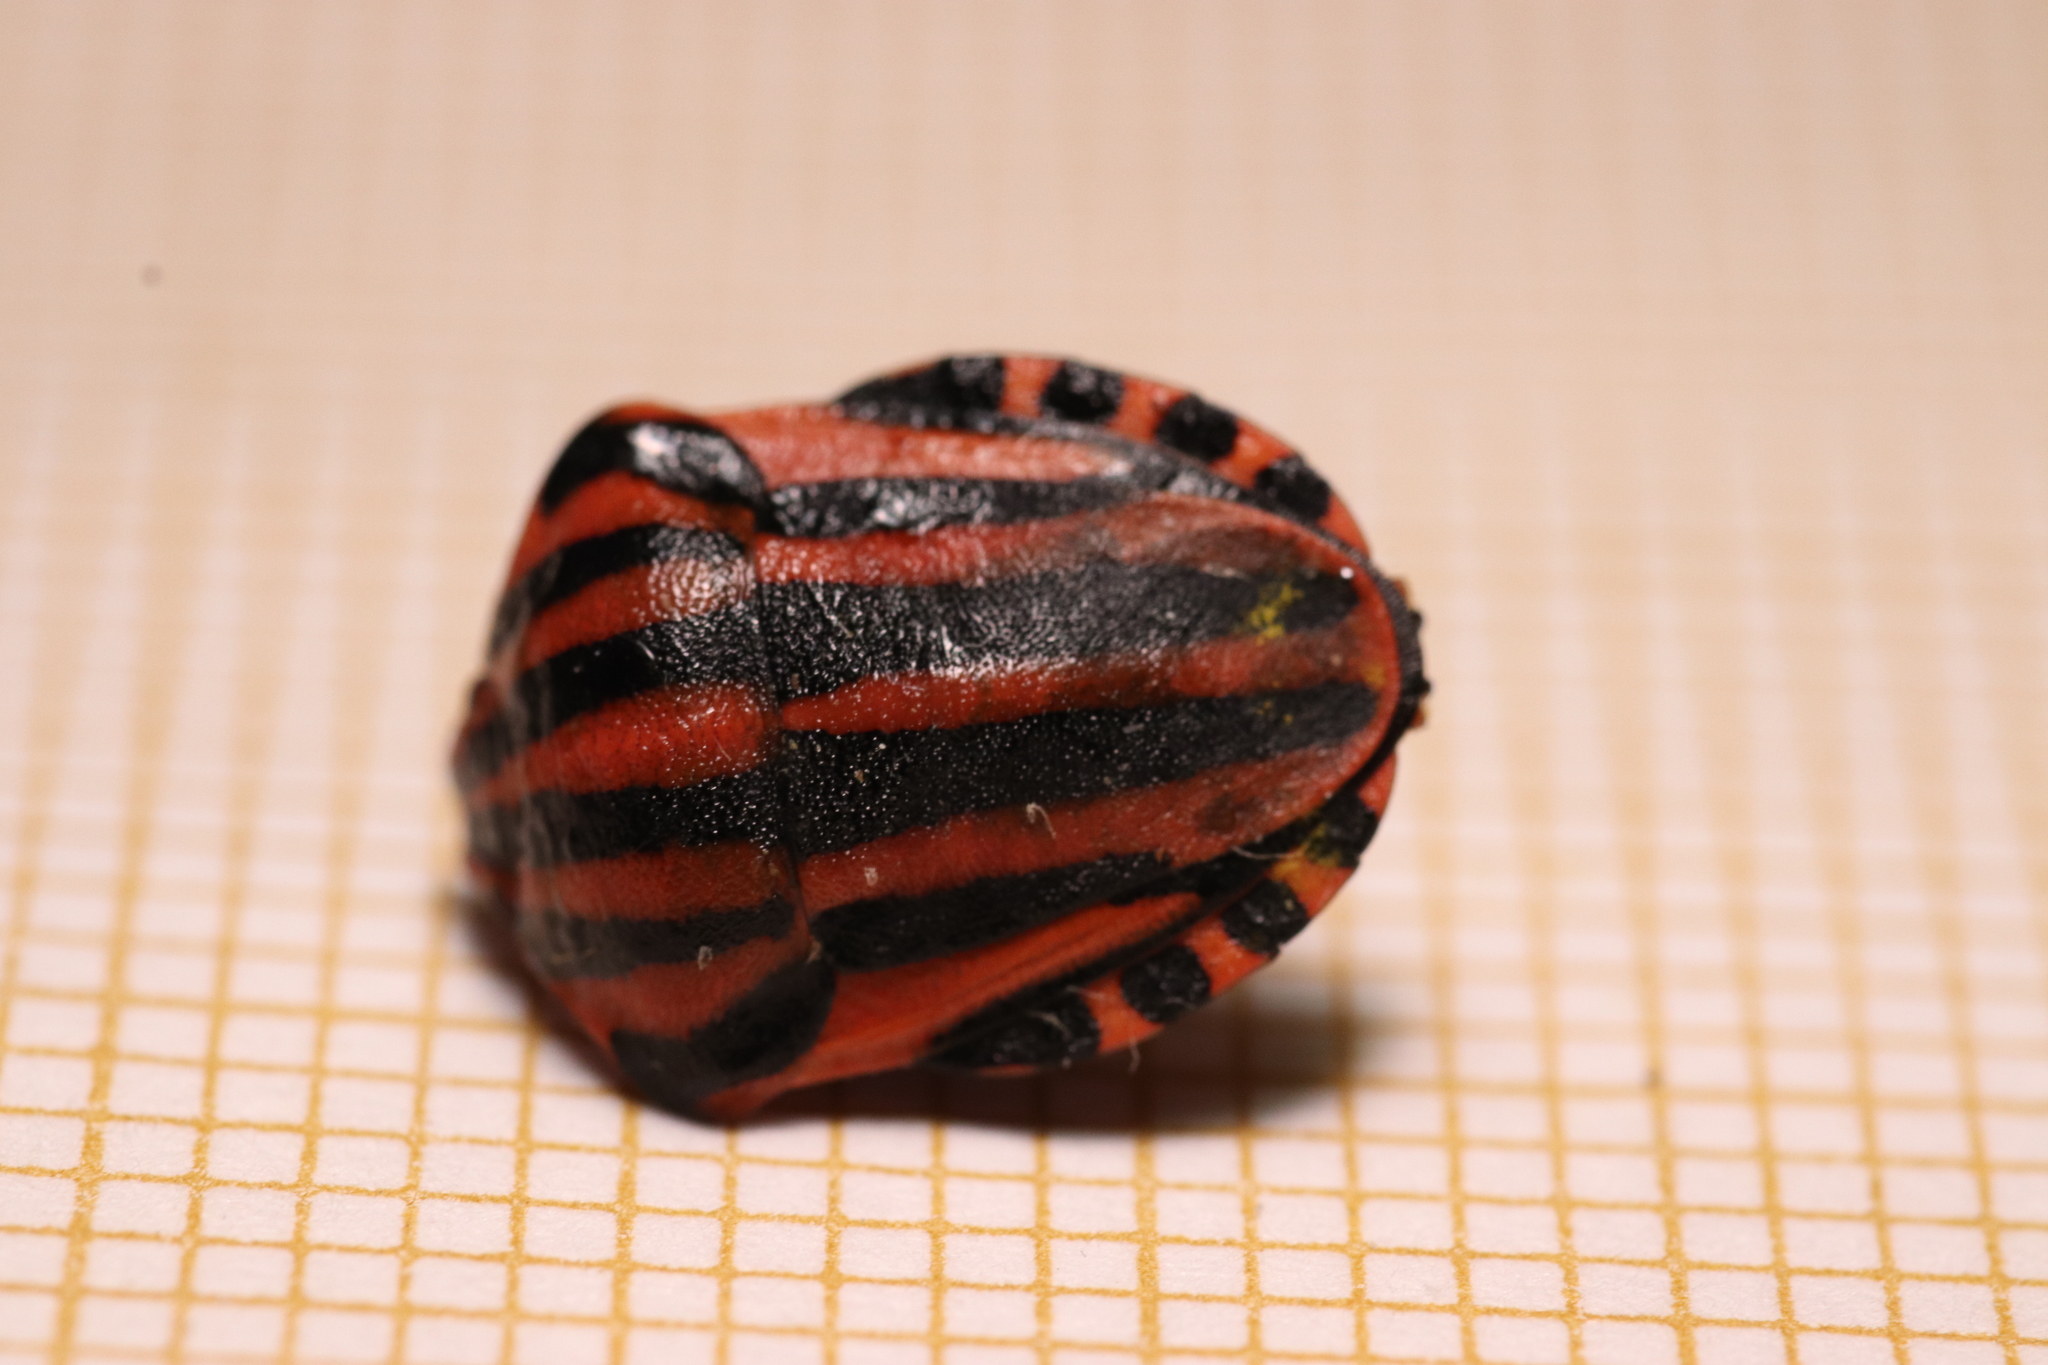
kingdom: Animalia
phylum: Arthropoda
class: Insecta
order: Hemiptera
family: Pentatomidae
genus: Graphosoma
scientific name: Graphosoma italicum
